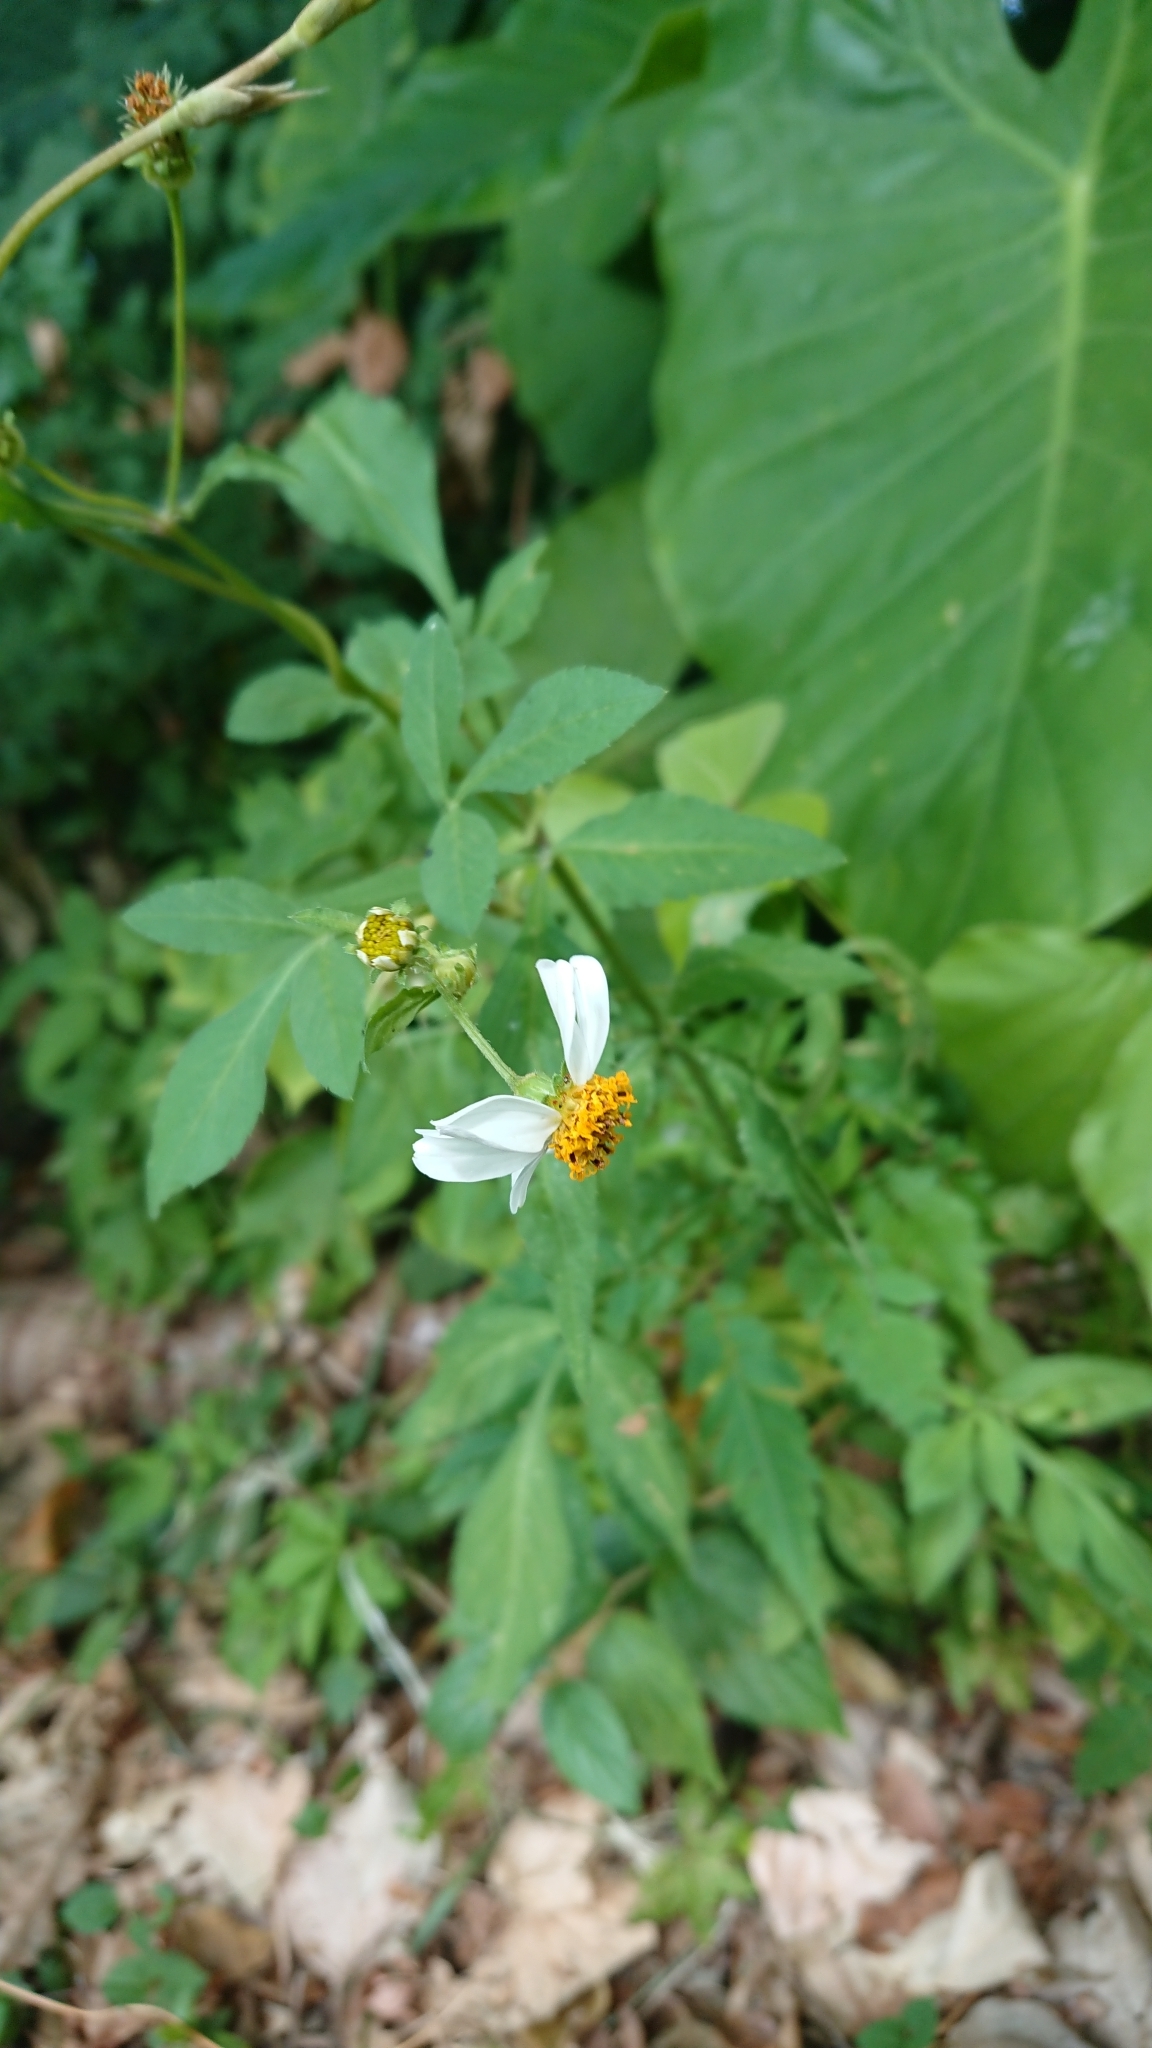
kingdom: Plantae
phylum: Tracheophyta
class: Magnoliopsida
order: Asterales
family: Asteraceae
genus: Bidens
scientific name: Bidens alba
